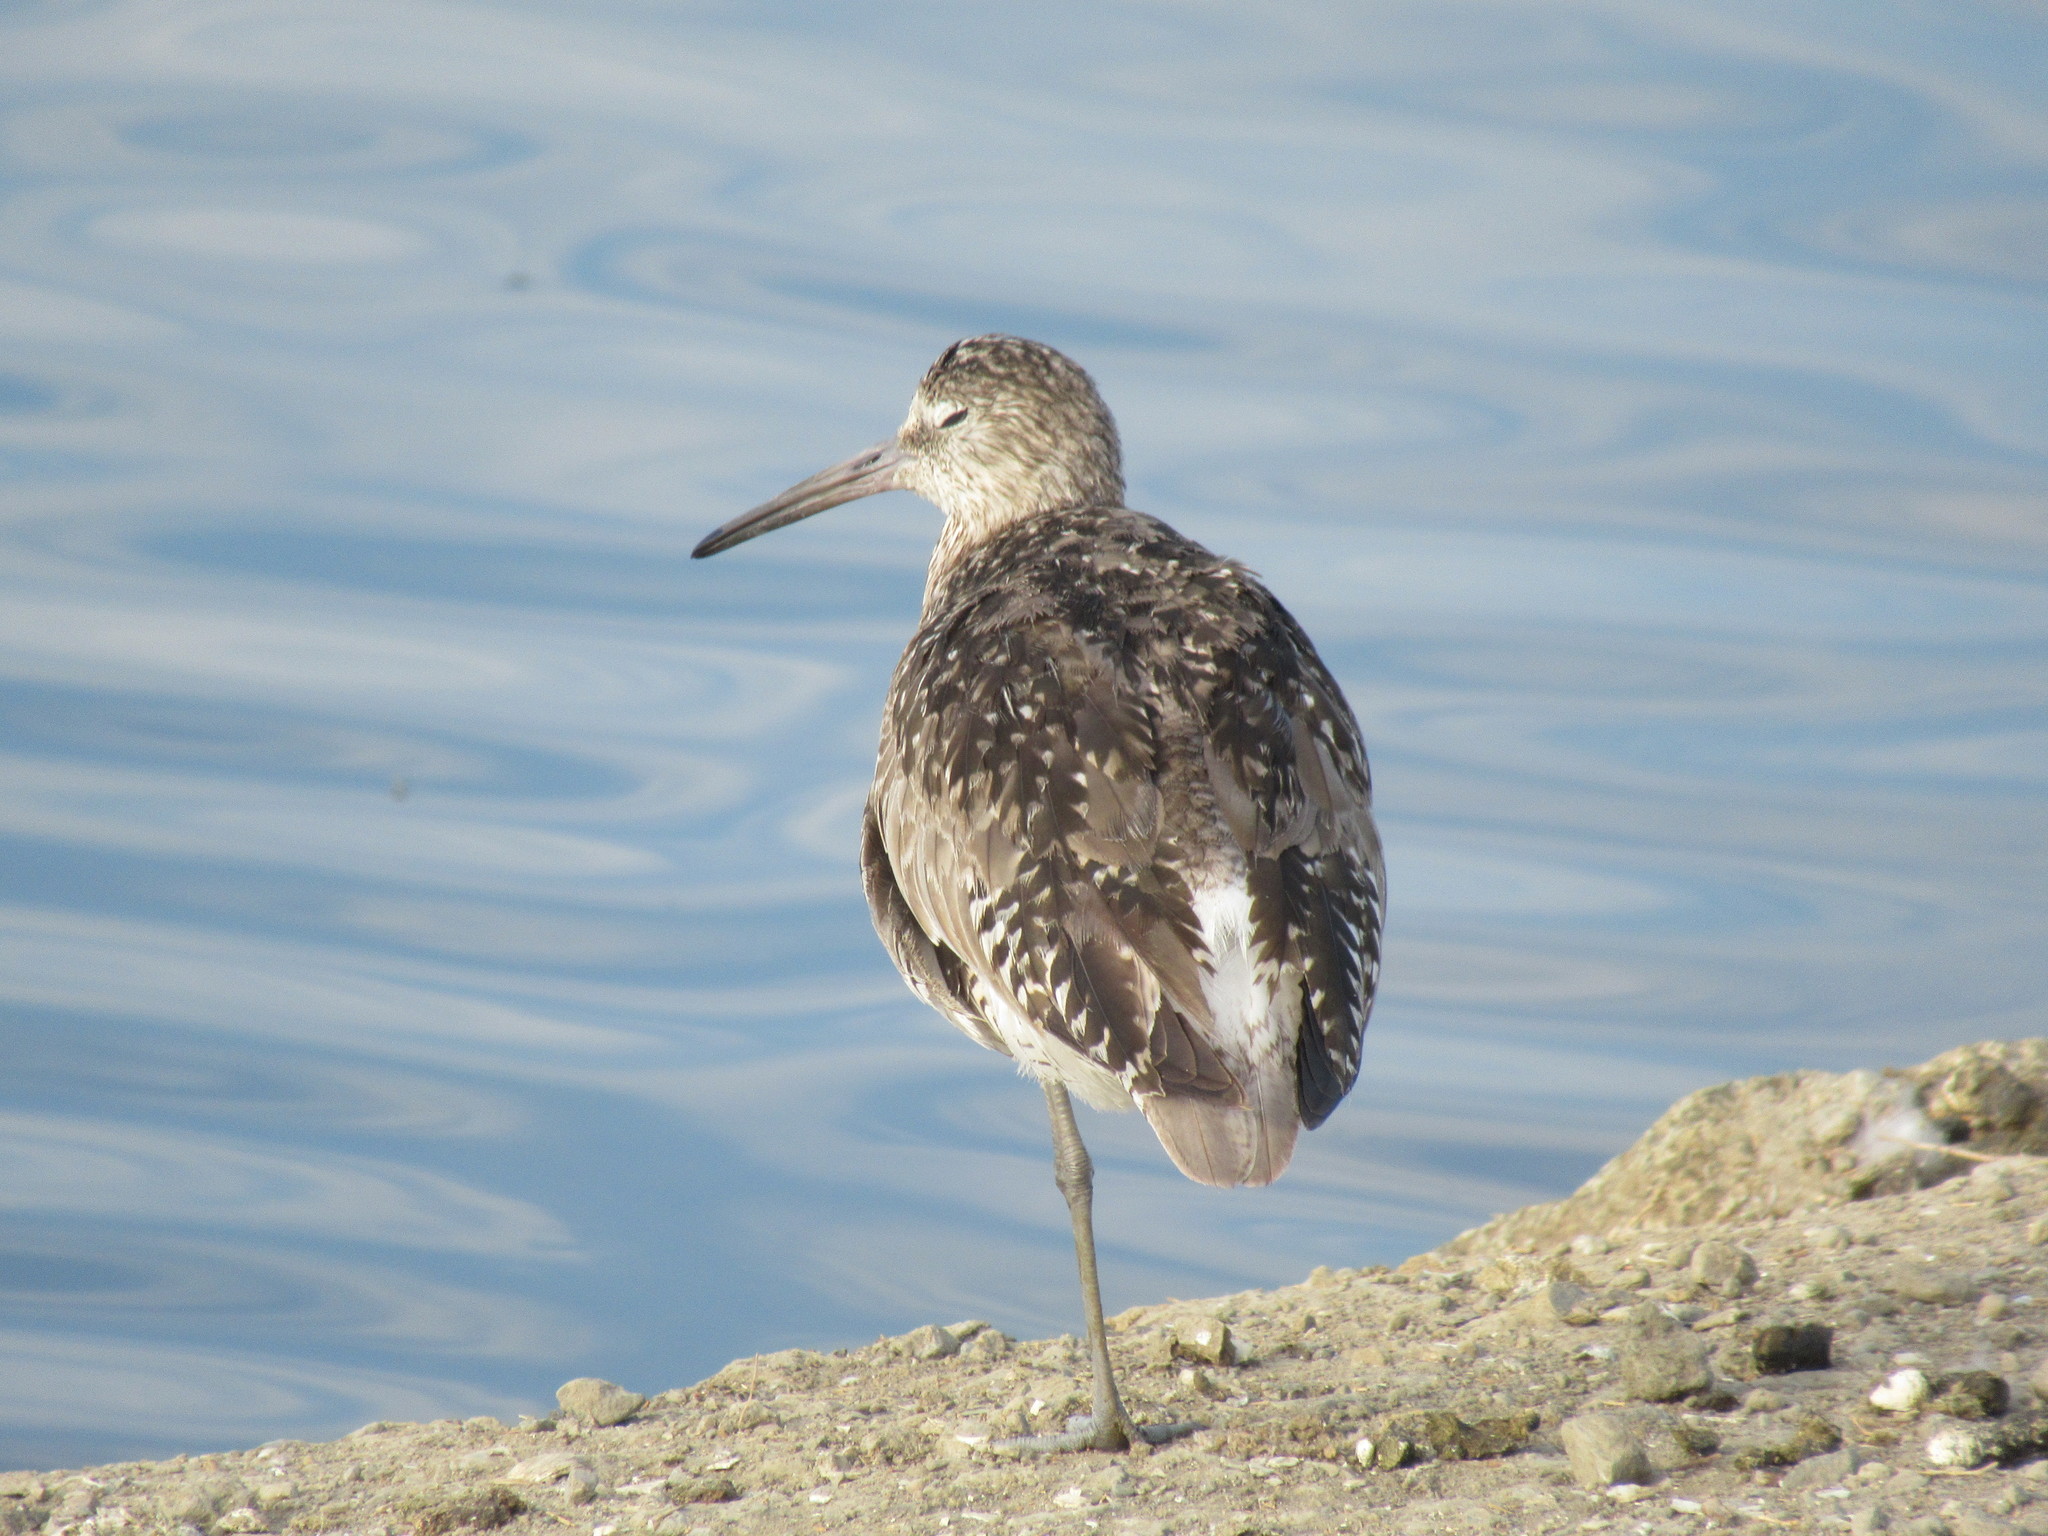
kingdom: Animalia
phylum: Chordata
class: Aves
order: Charadriiformes
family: Scolopacidae
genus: Tringa
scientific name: Tringa semipalmata
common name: Willet
